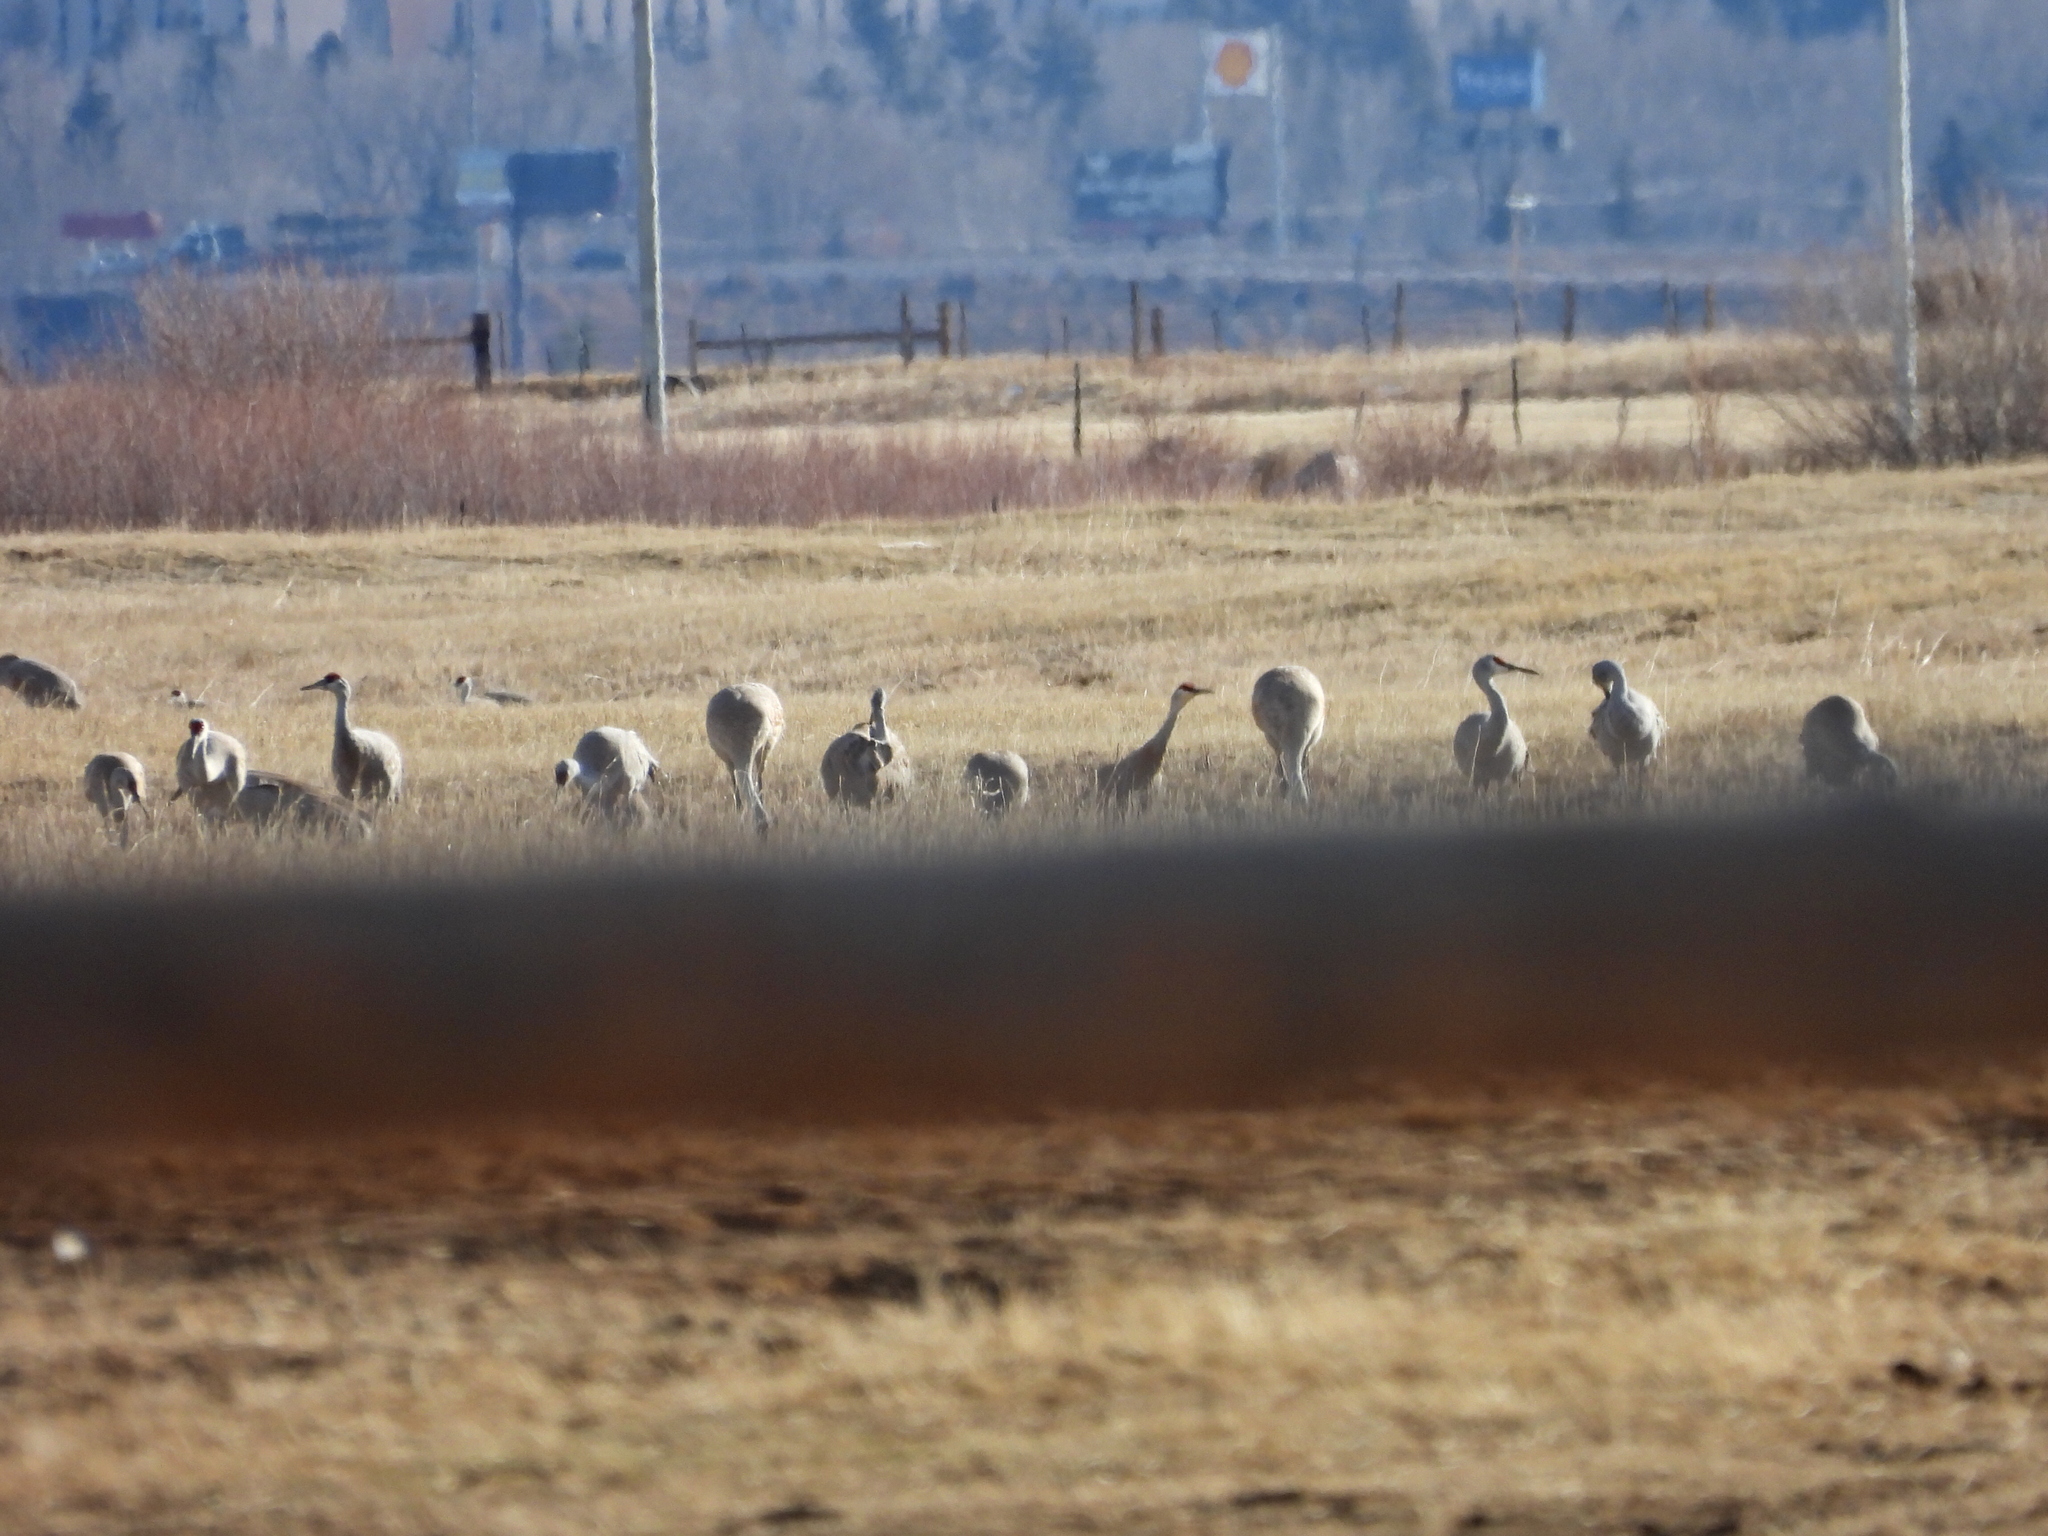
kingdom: Animalia
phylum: Chordata
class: Aves
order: Gruiformes
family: Gruidae
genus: Grus
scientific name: Grus canadensis
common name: Sandhill crane
